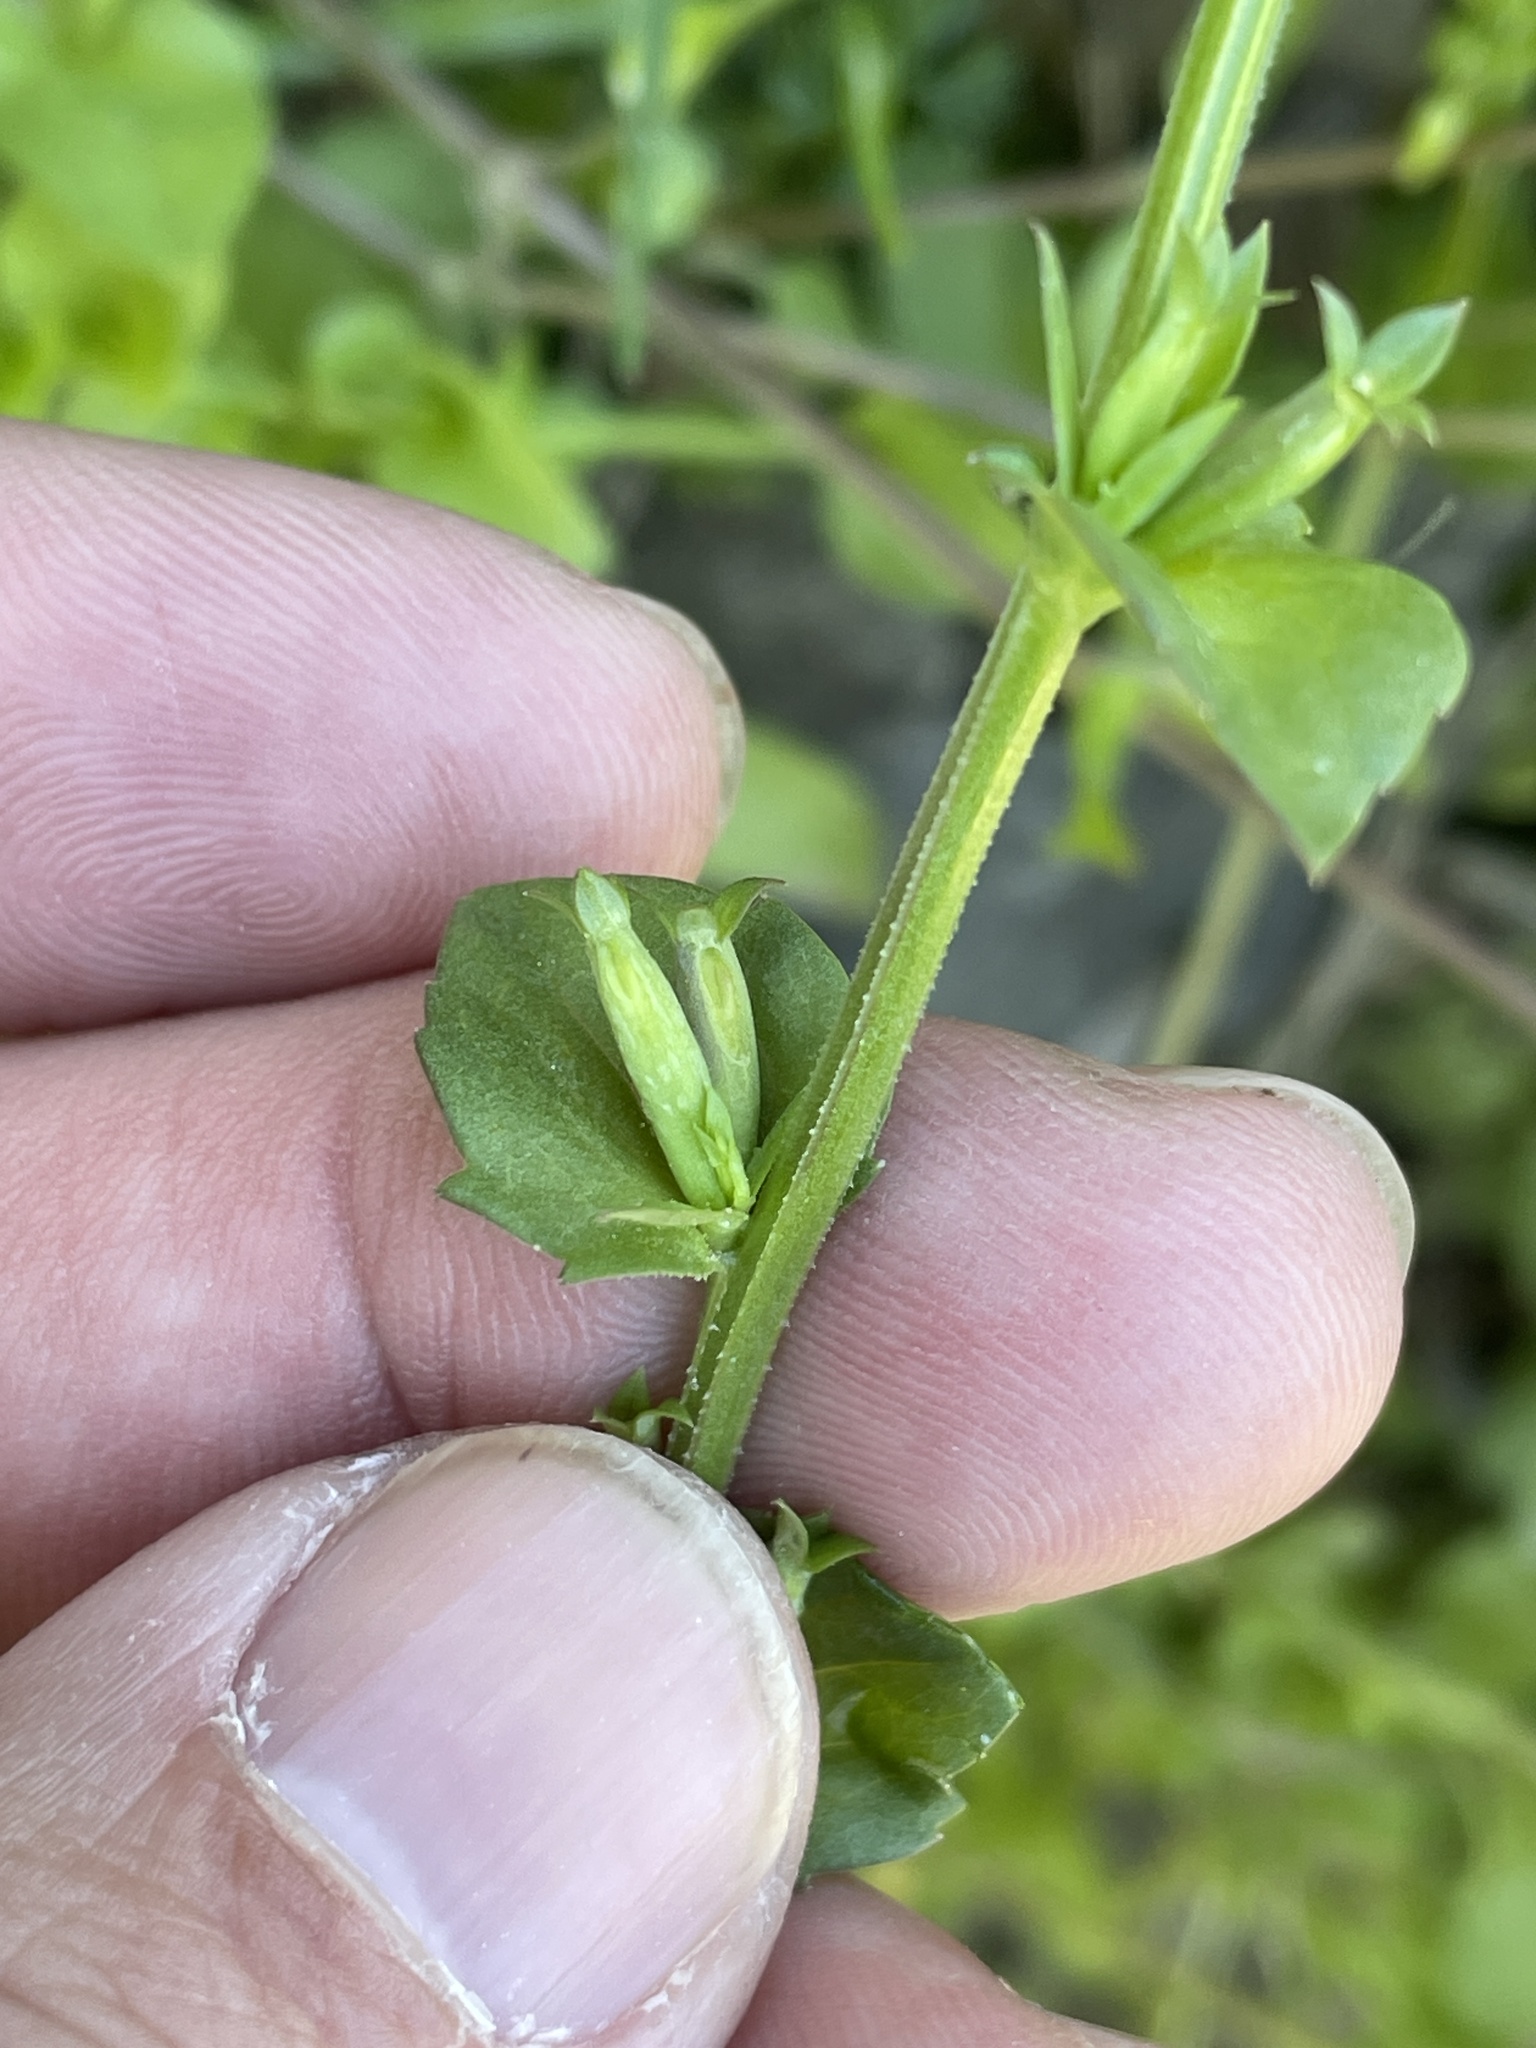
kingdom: Plantae
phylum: Tracheophyta
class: Magnoliopsida
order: Asterales
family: Campanulaceae
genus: Triodanis
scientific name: Triodanis biflora
